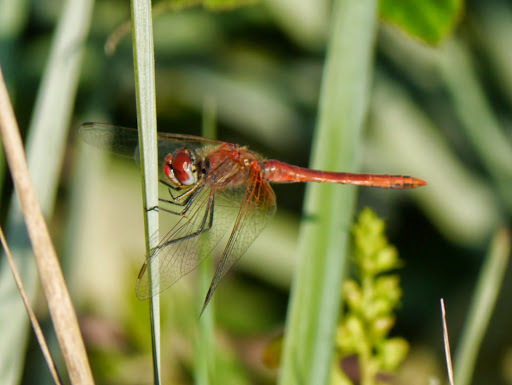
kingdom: Animalia
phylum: Arthropoda
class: Insecta
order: Odonata
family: Libellulidae
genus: Sympetrum
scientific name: Sympetrum fonscolombii
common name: Red-veined darter
